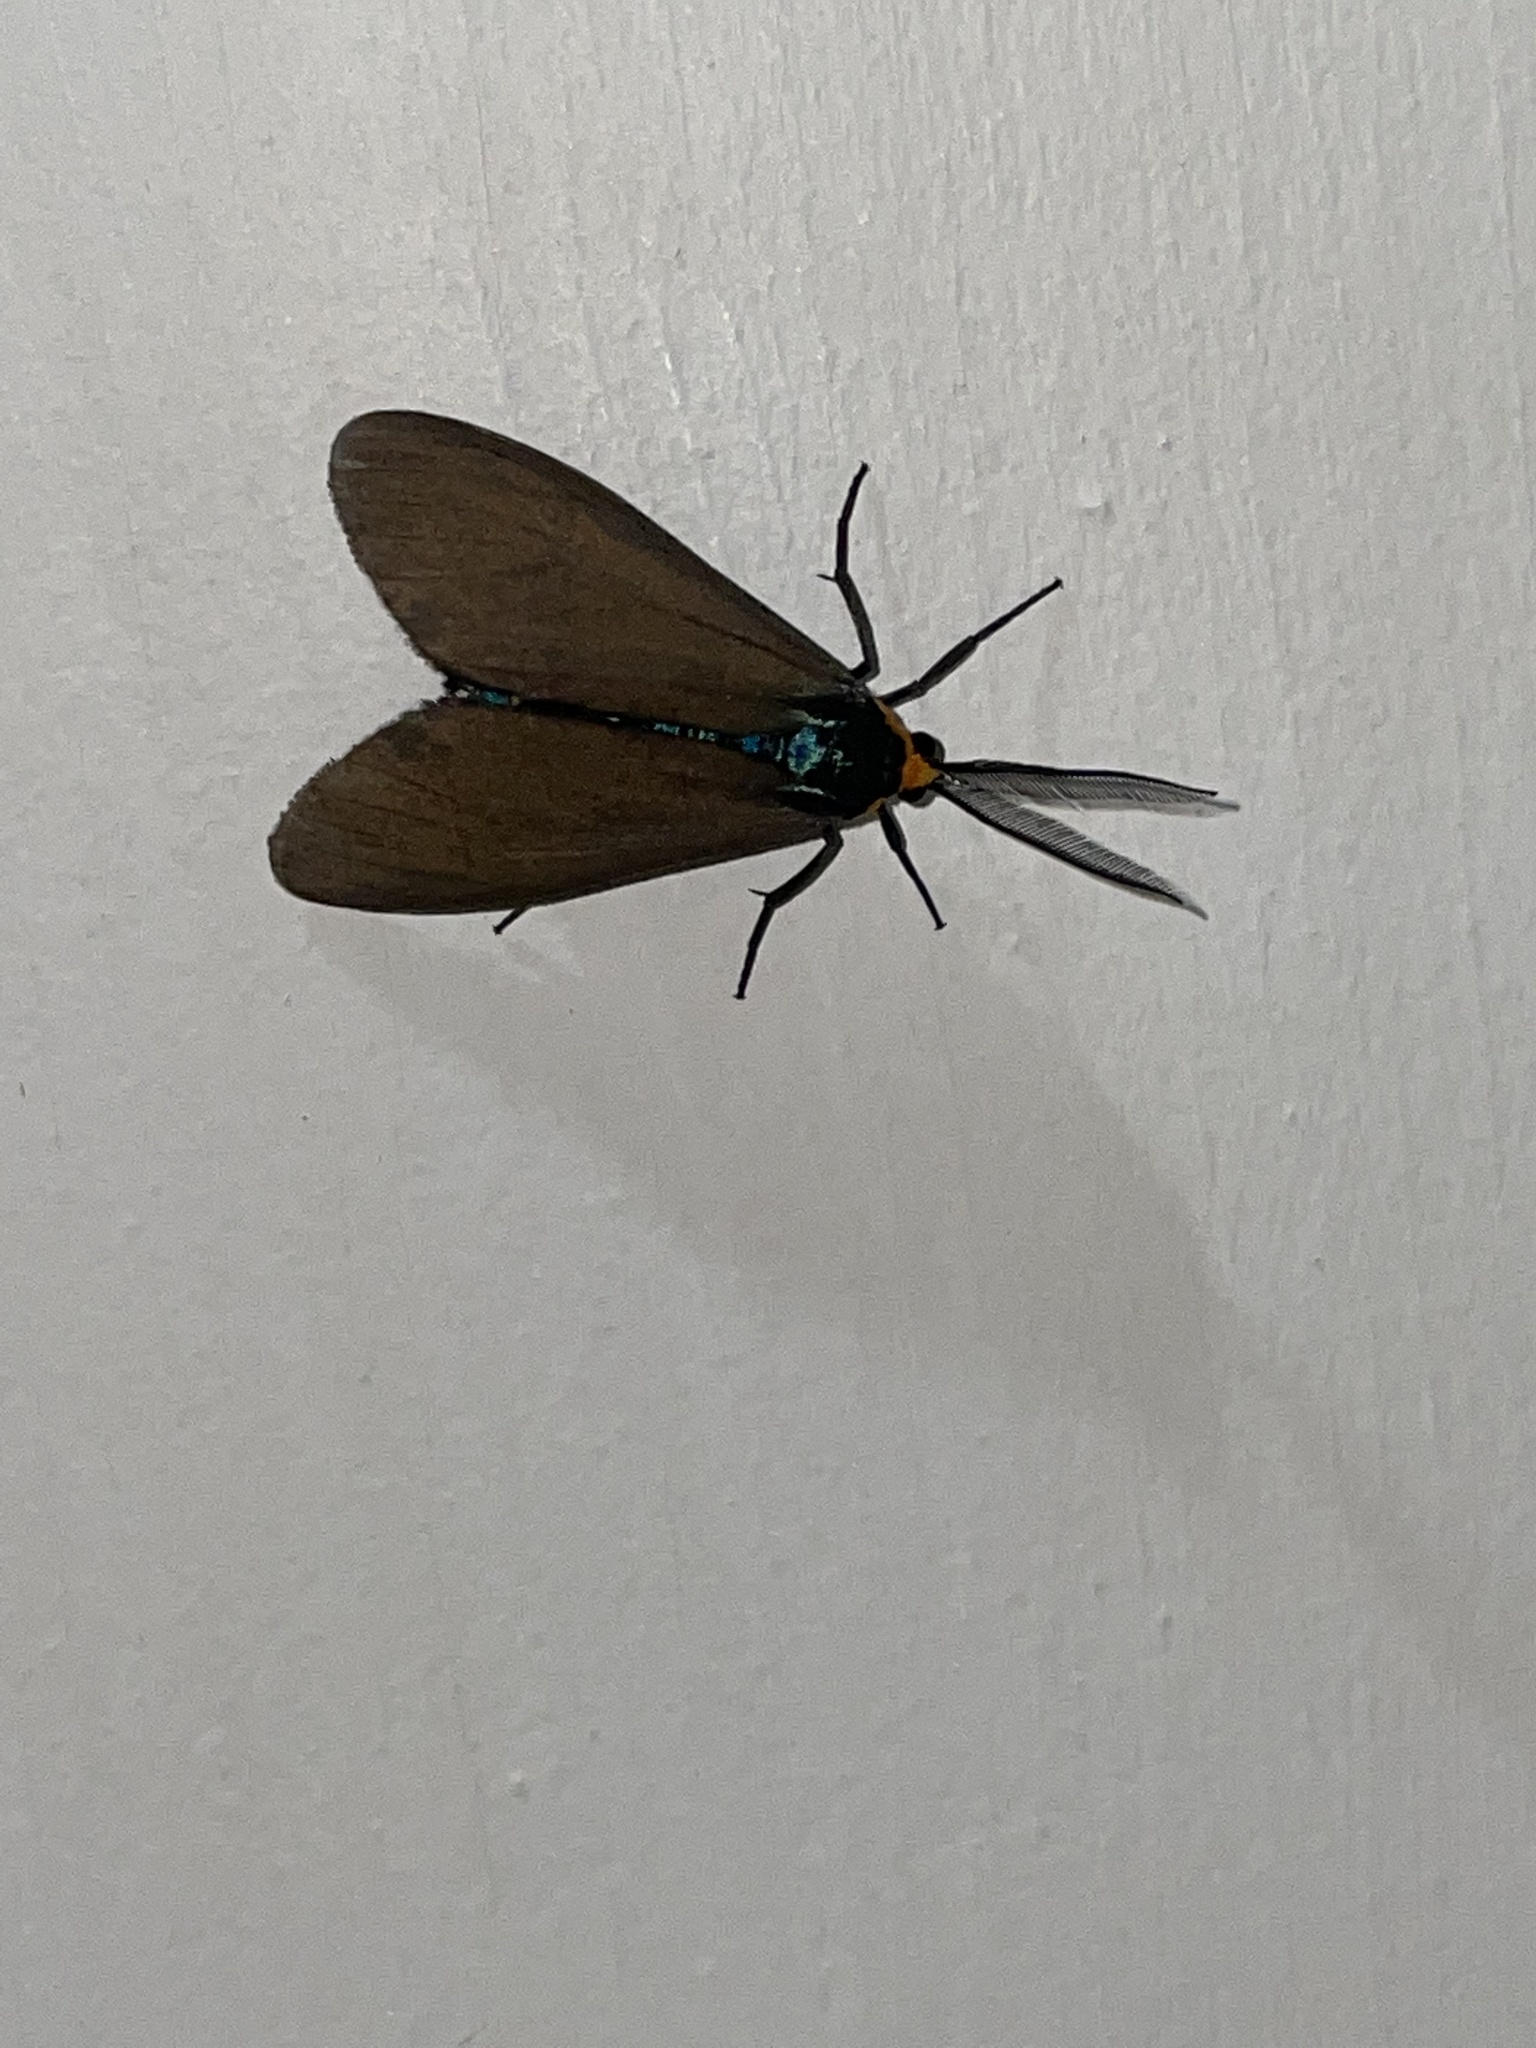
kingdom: Animalia
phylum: Arthropoda
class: Insecta
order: Lepidoptera
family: Erebidae
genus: Ctenucha
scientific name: Ctenucha virginica
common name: Virginia ctenucha moth
